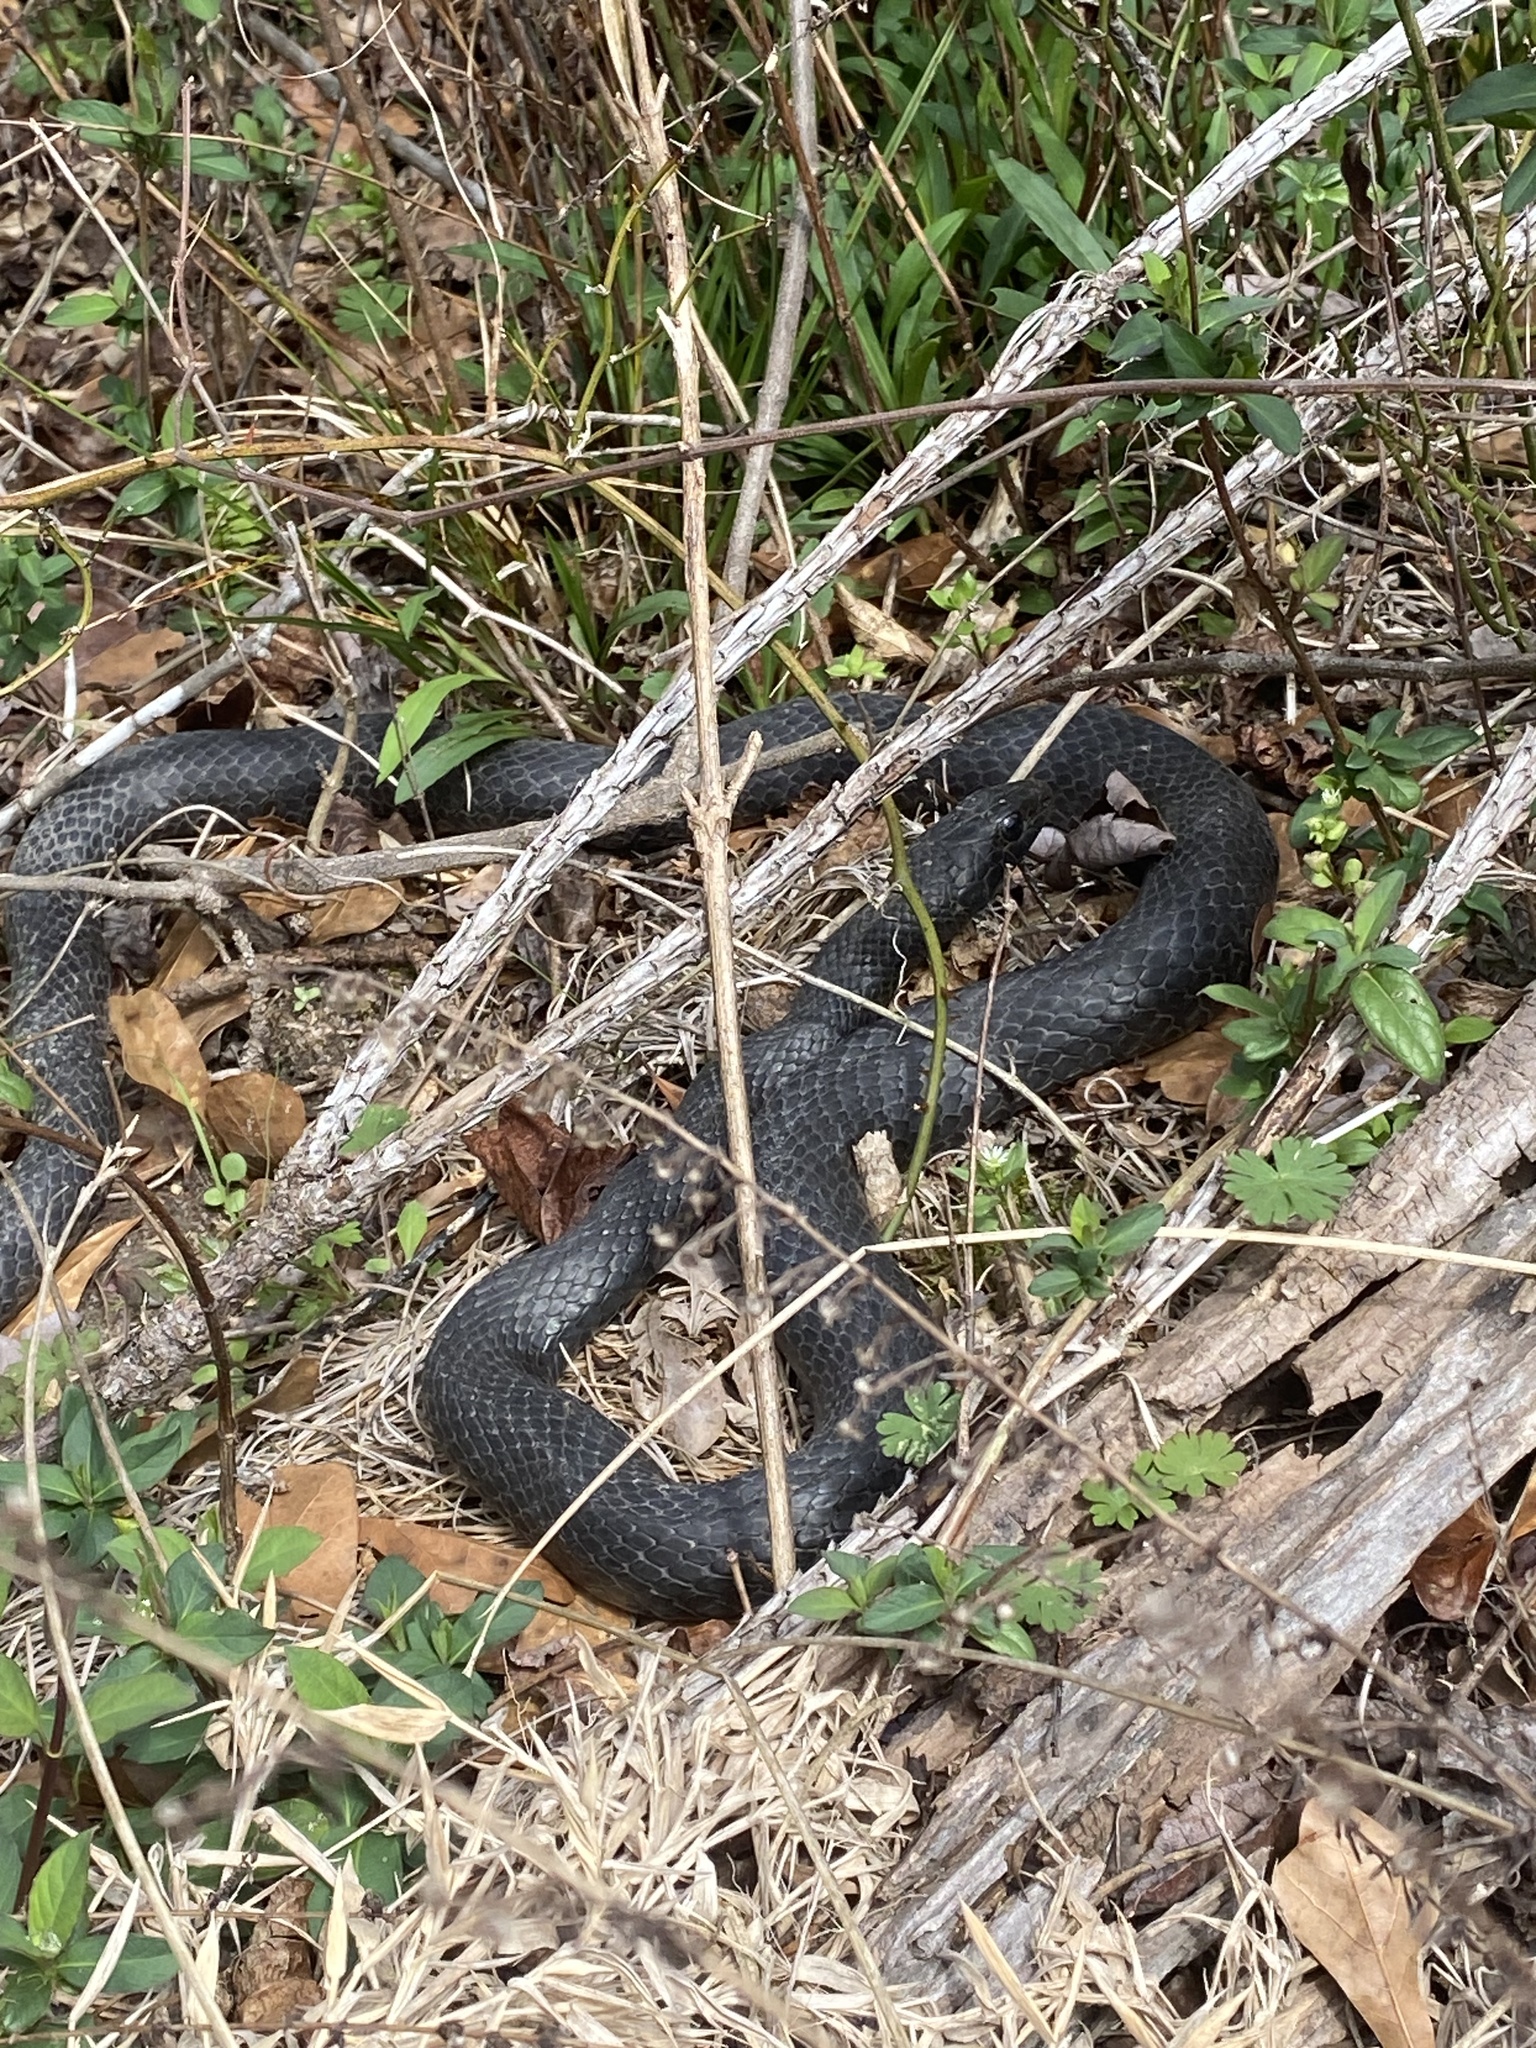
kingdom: Animalia
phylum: Chordata
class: Squamata
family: Colubridae
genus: Coluber
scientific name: Coluber constrictor
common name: Eastern racer
